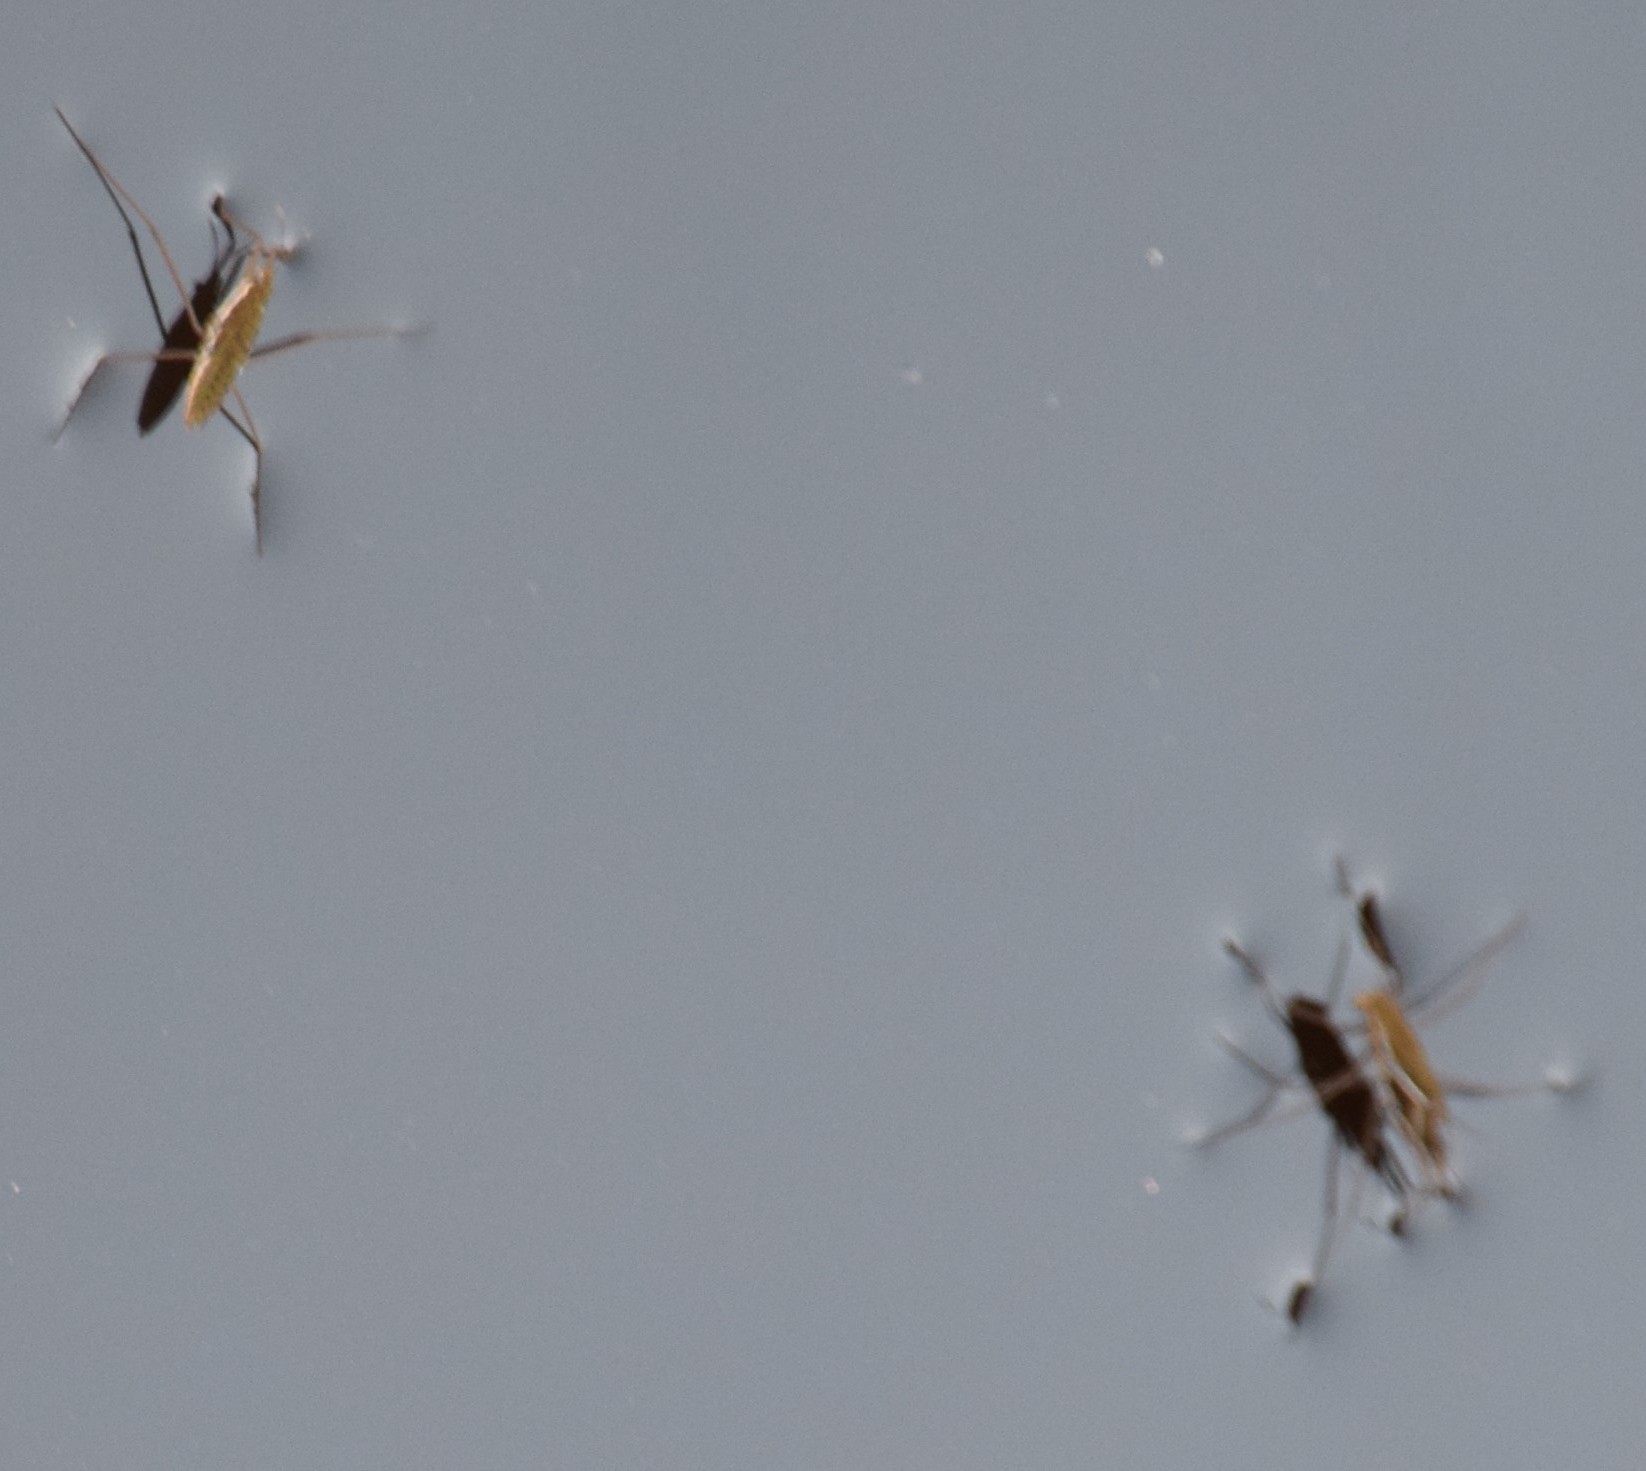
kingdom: Animalia
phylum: Arthropoda
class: Insecta
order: Hemiptera
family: Gerridae
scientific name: Gerridae
